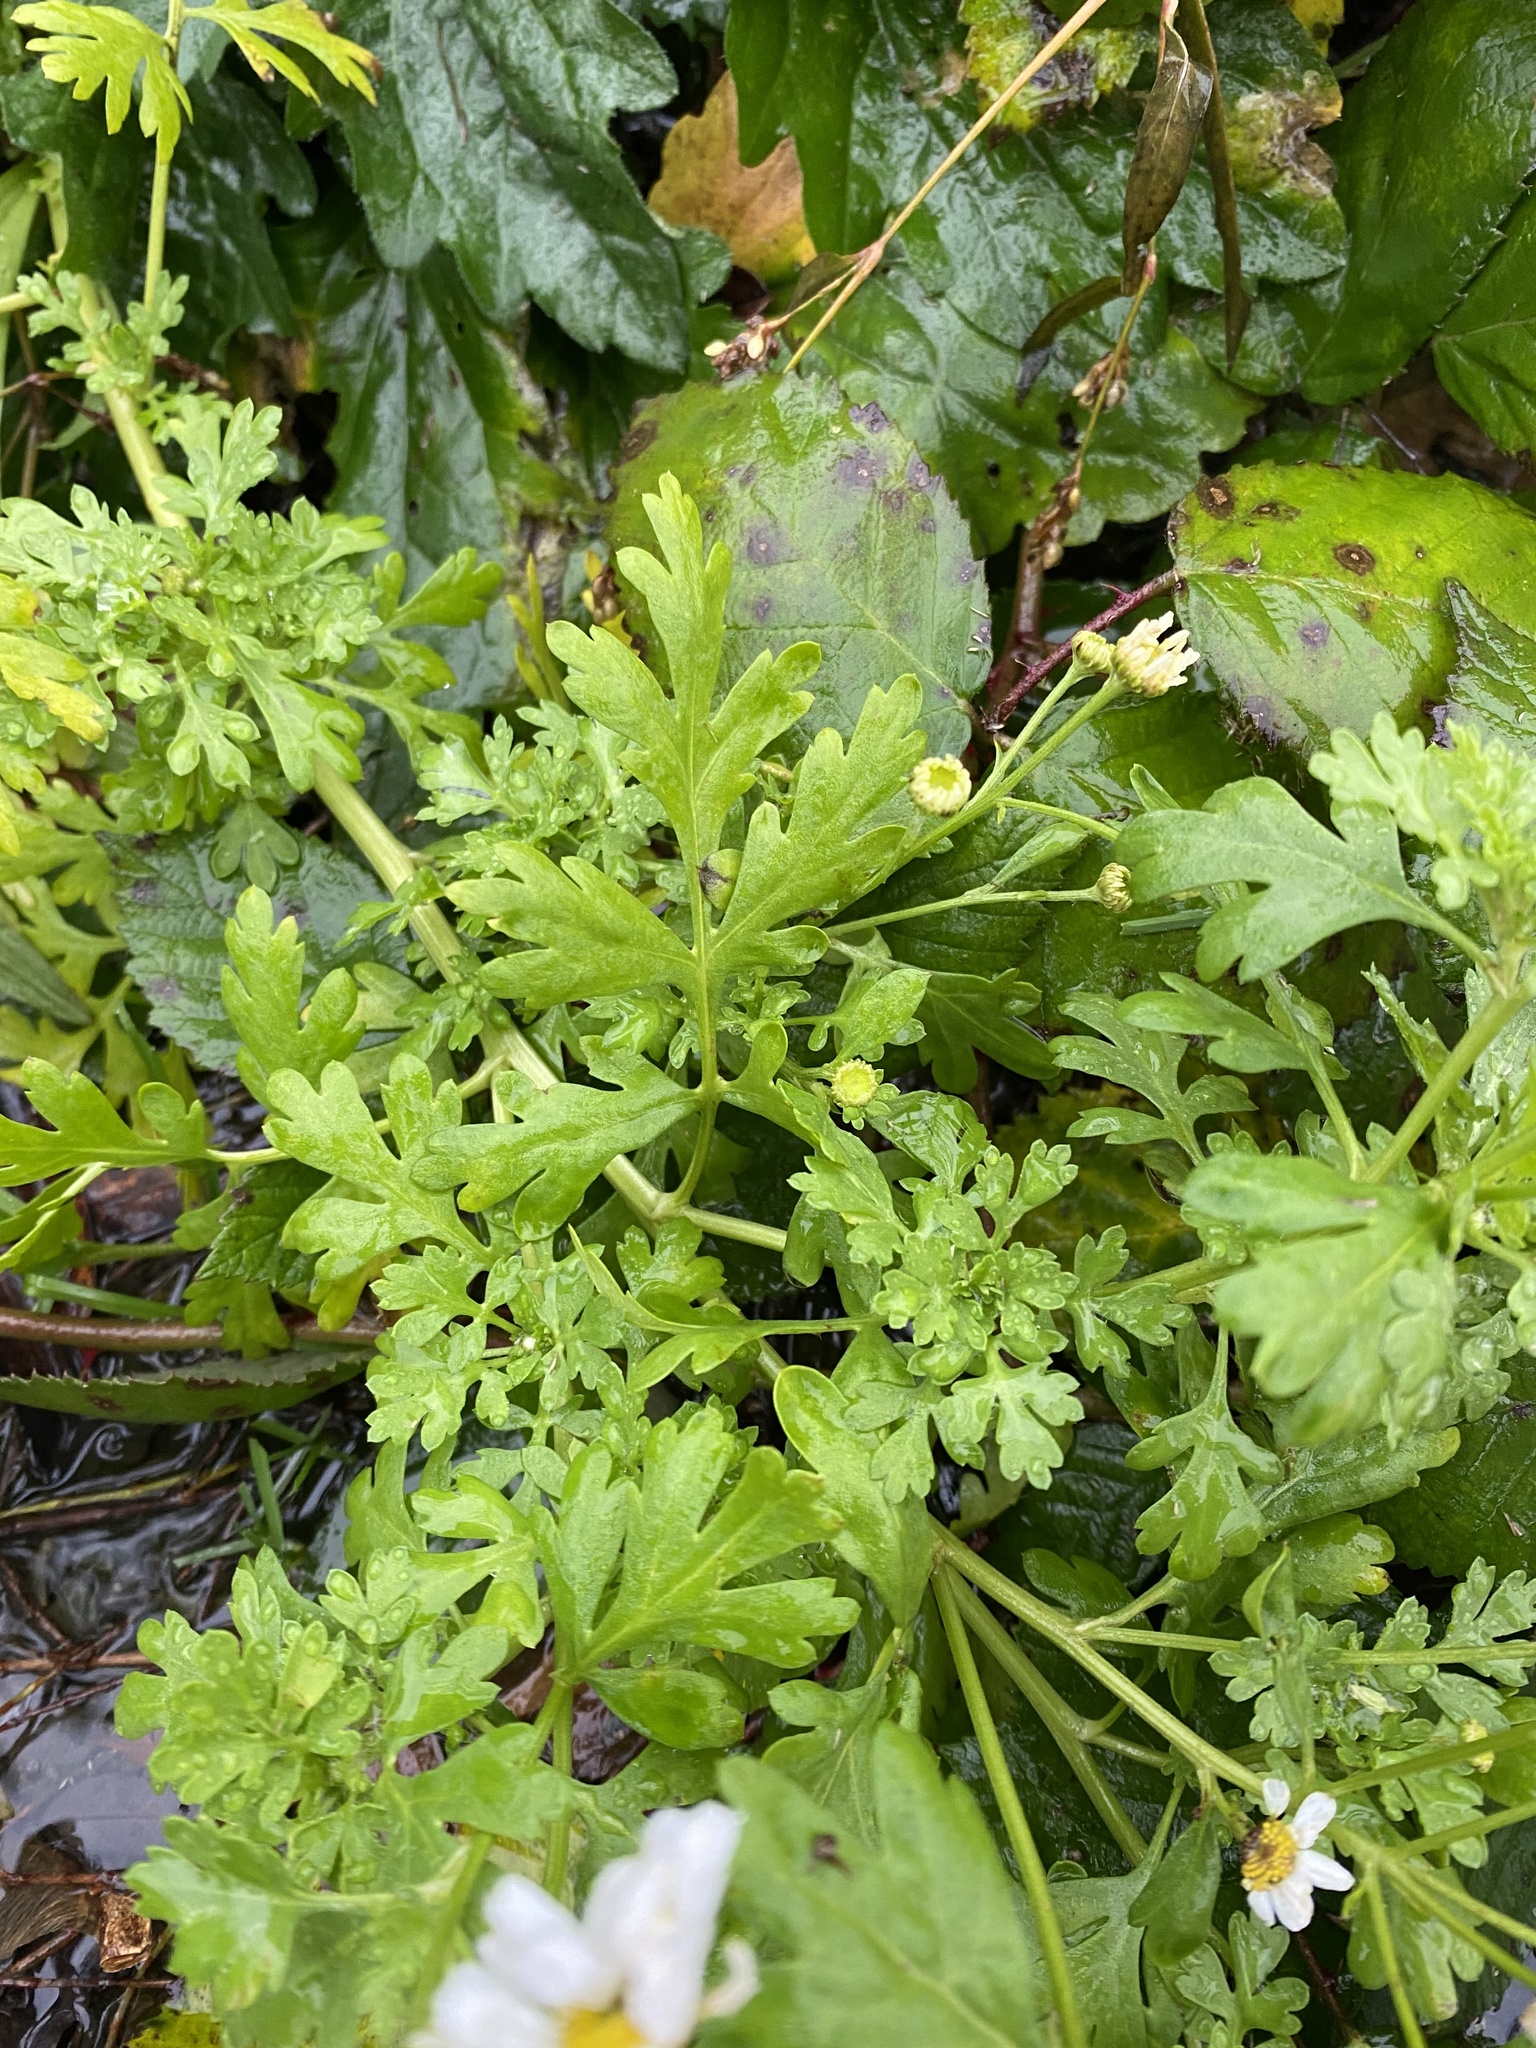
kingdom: Plantae
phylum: Tracheophyta
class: Magnoliopsida
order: Asterales
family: Asteraceae
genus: Tanacetum
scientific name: Tanacetum parthenium
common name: Feverfew
